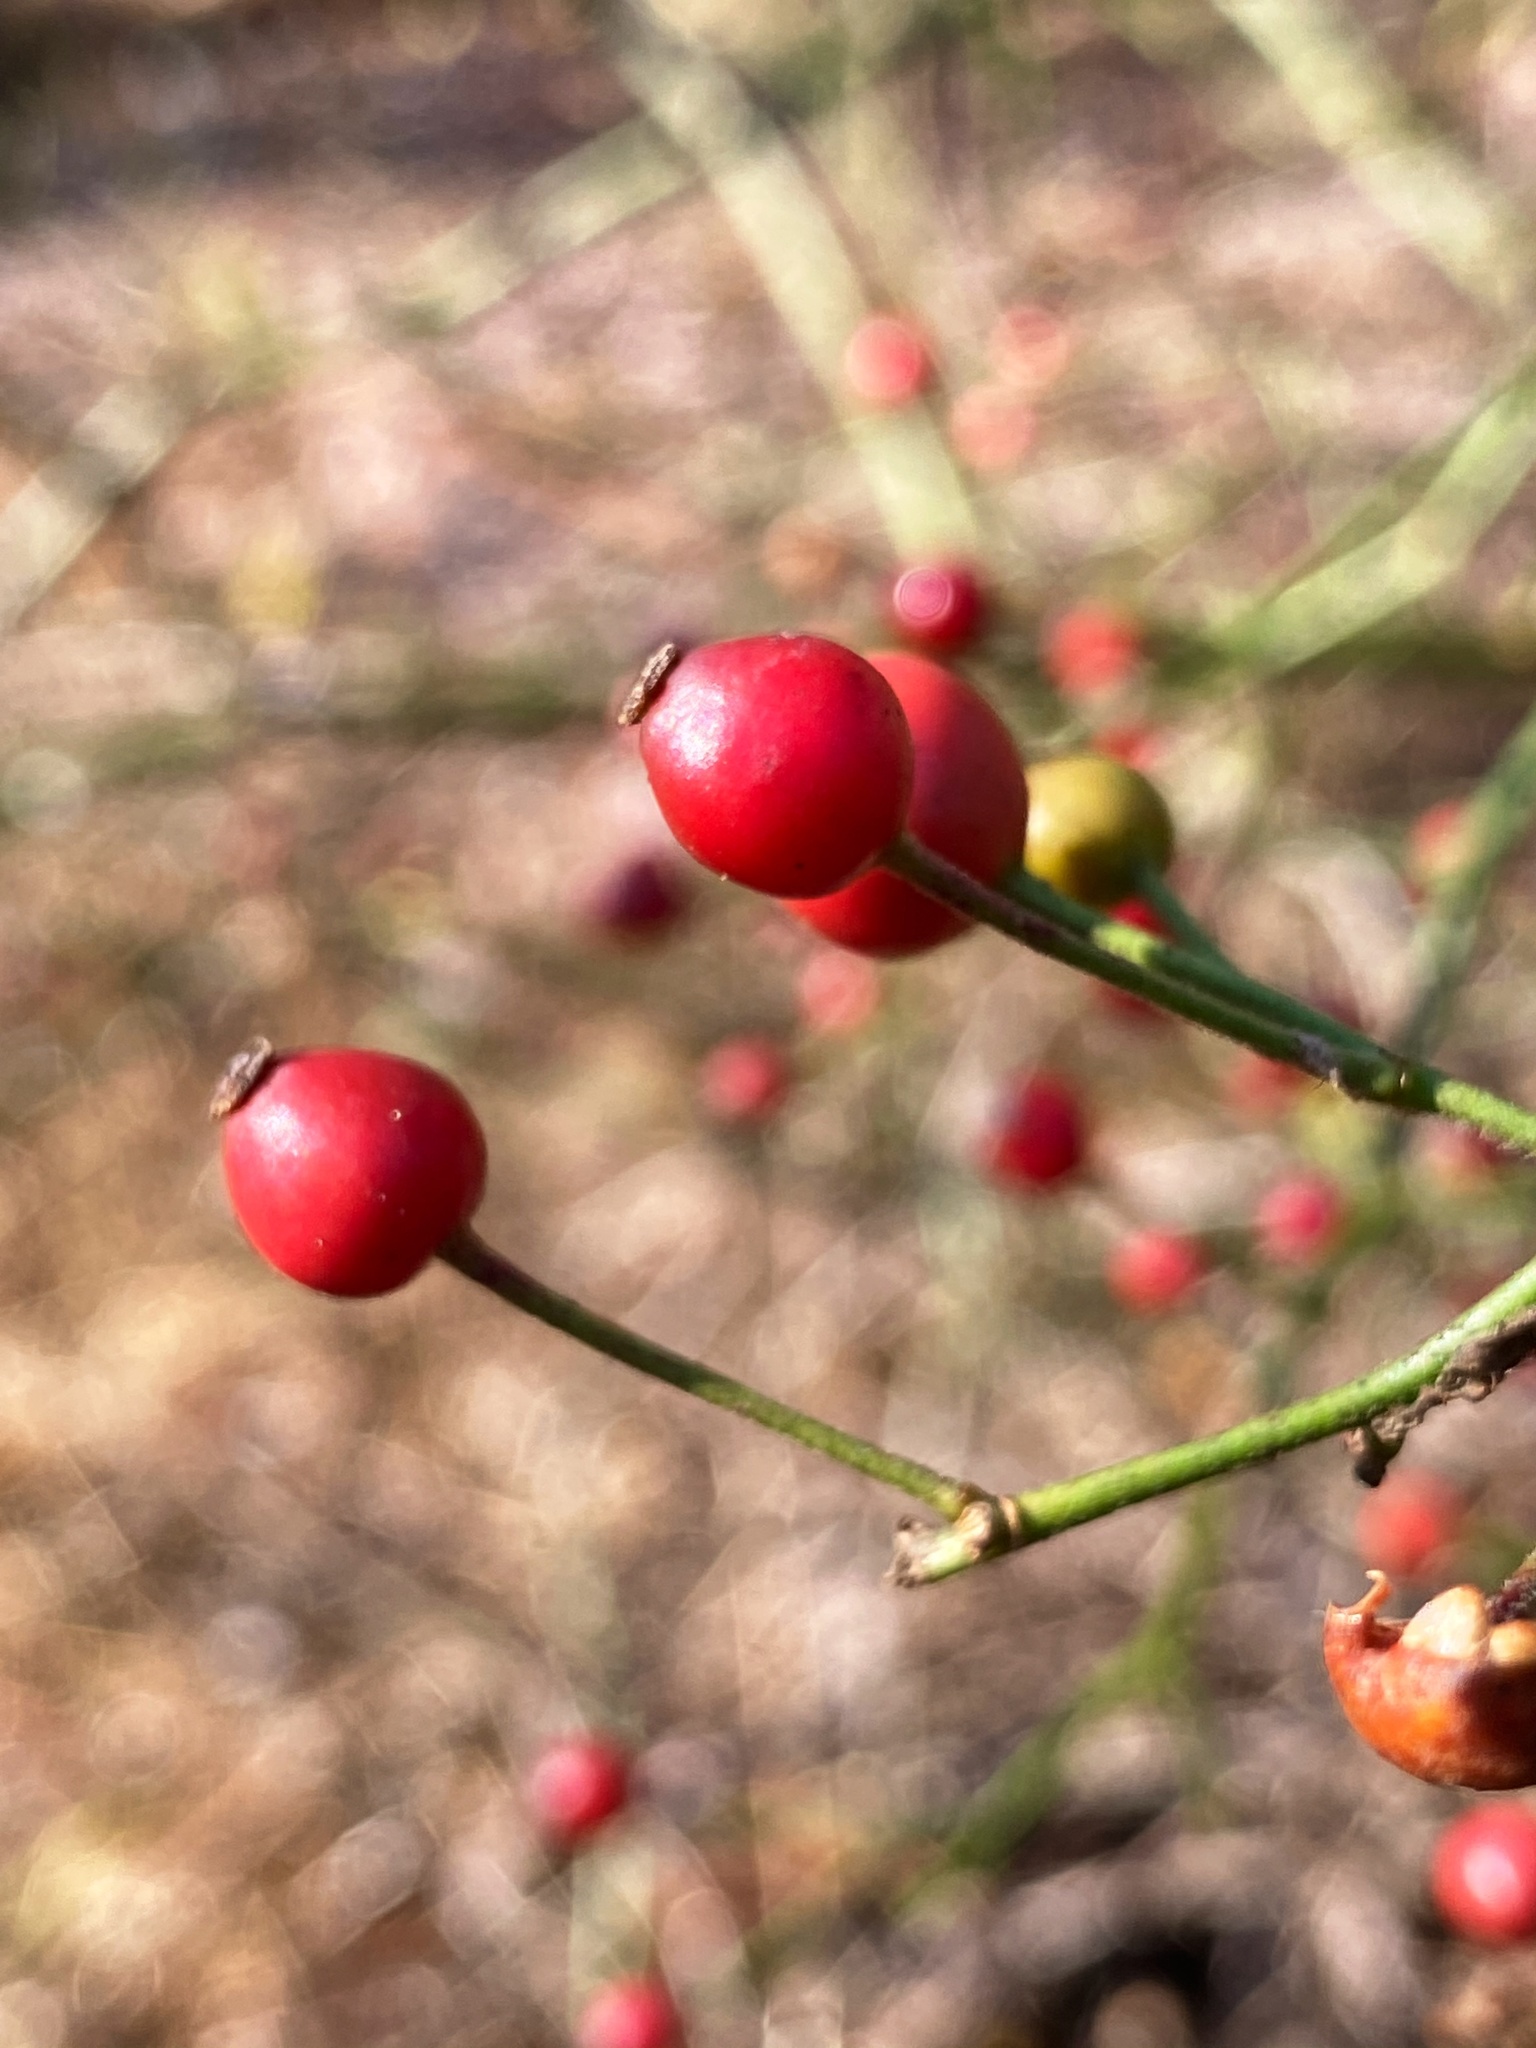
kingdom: Plantae
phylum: Tracheophyta
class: Magnoliopsida
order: Rosales
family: Rosaceae
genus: Rosa
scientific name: Rosa multiflora
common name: Multiflora rose
